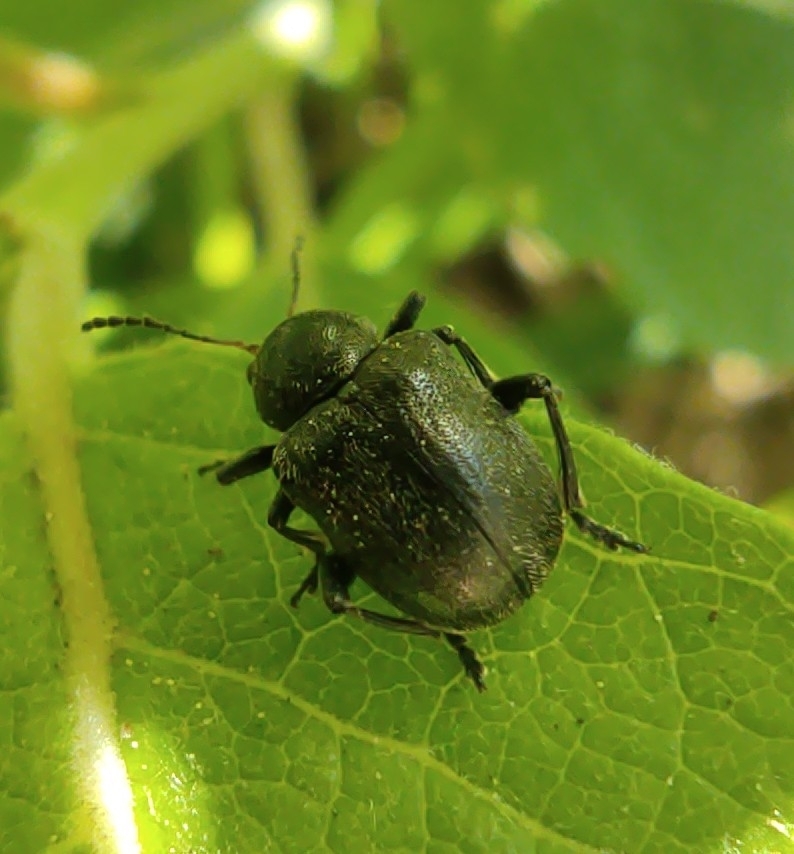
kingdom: Animalia
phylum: Arthropoda
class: Insecta
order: Coleoptera
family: Chrysomelidae
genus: Bromius
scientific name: Bromius obscurus
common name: Western grape rootworm
